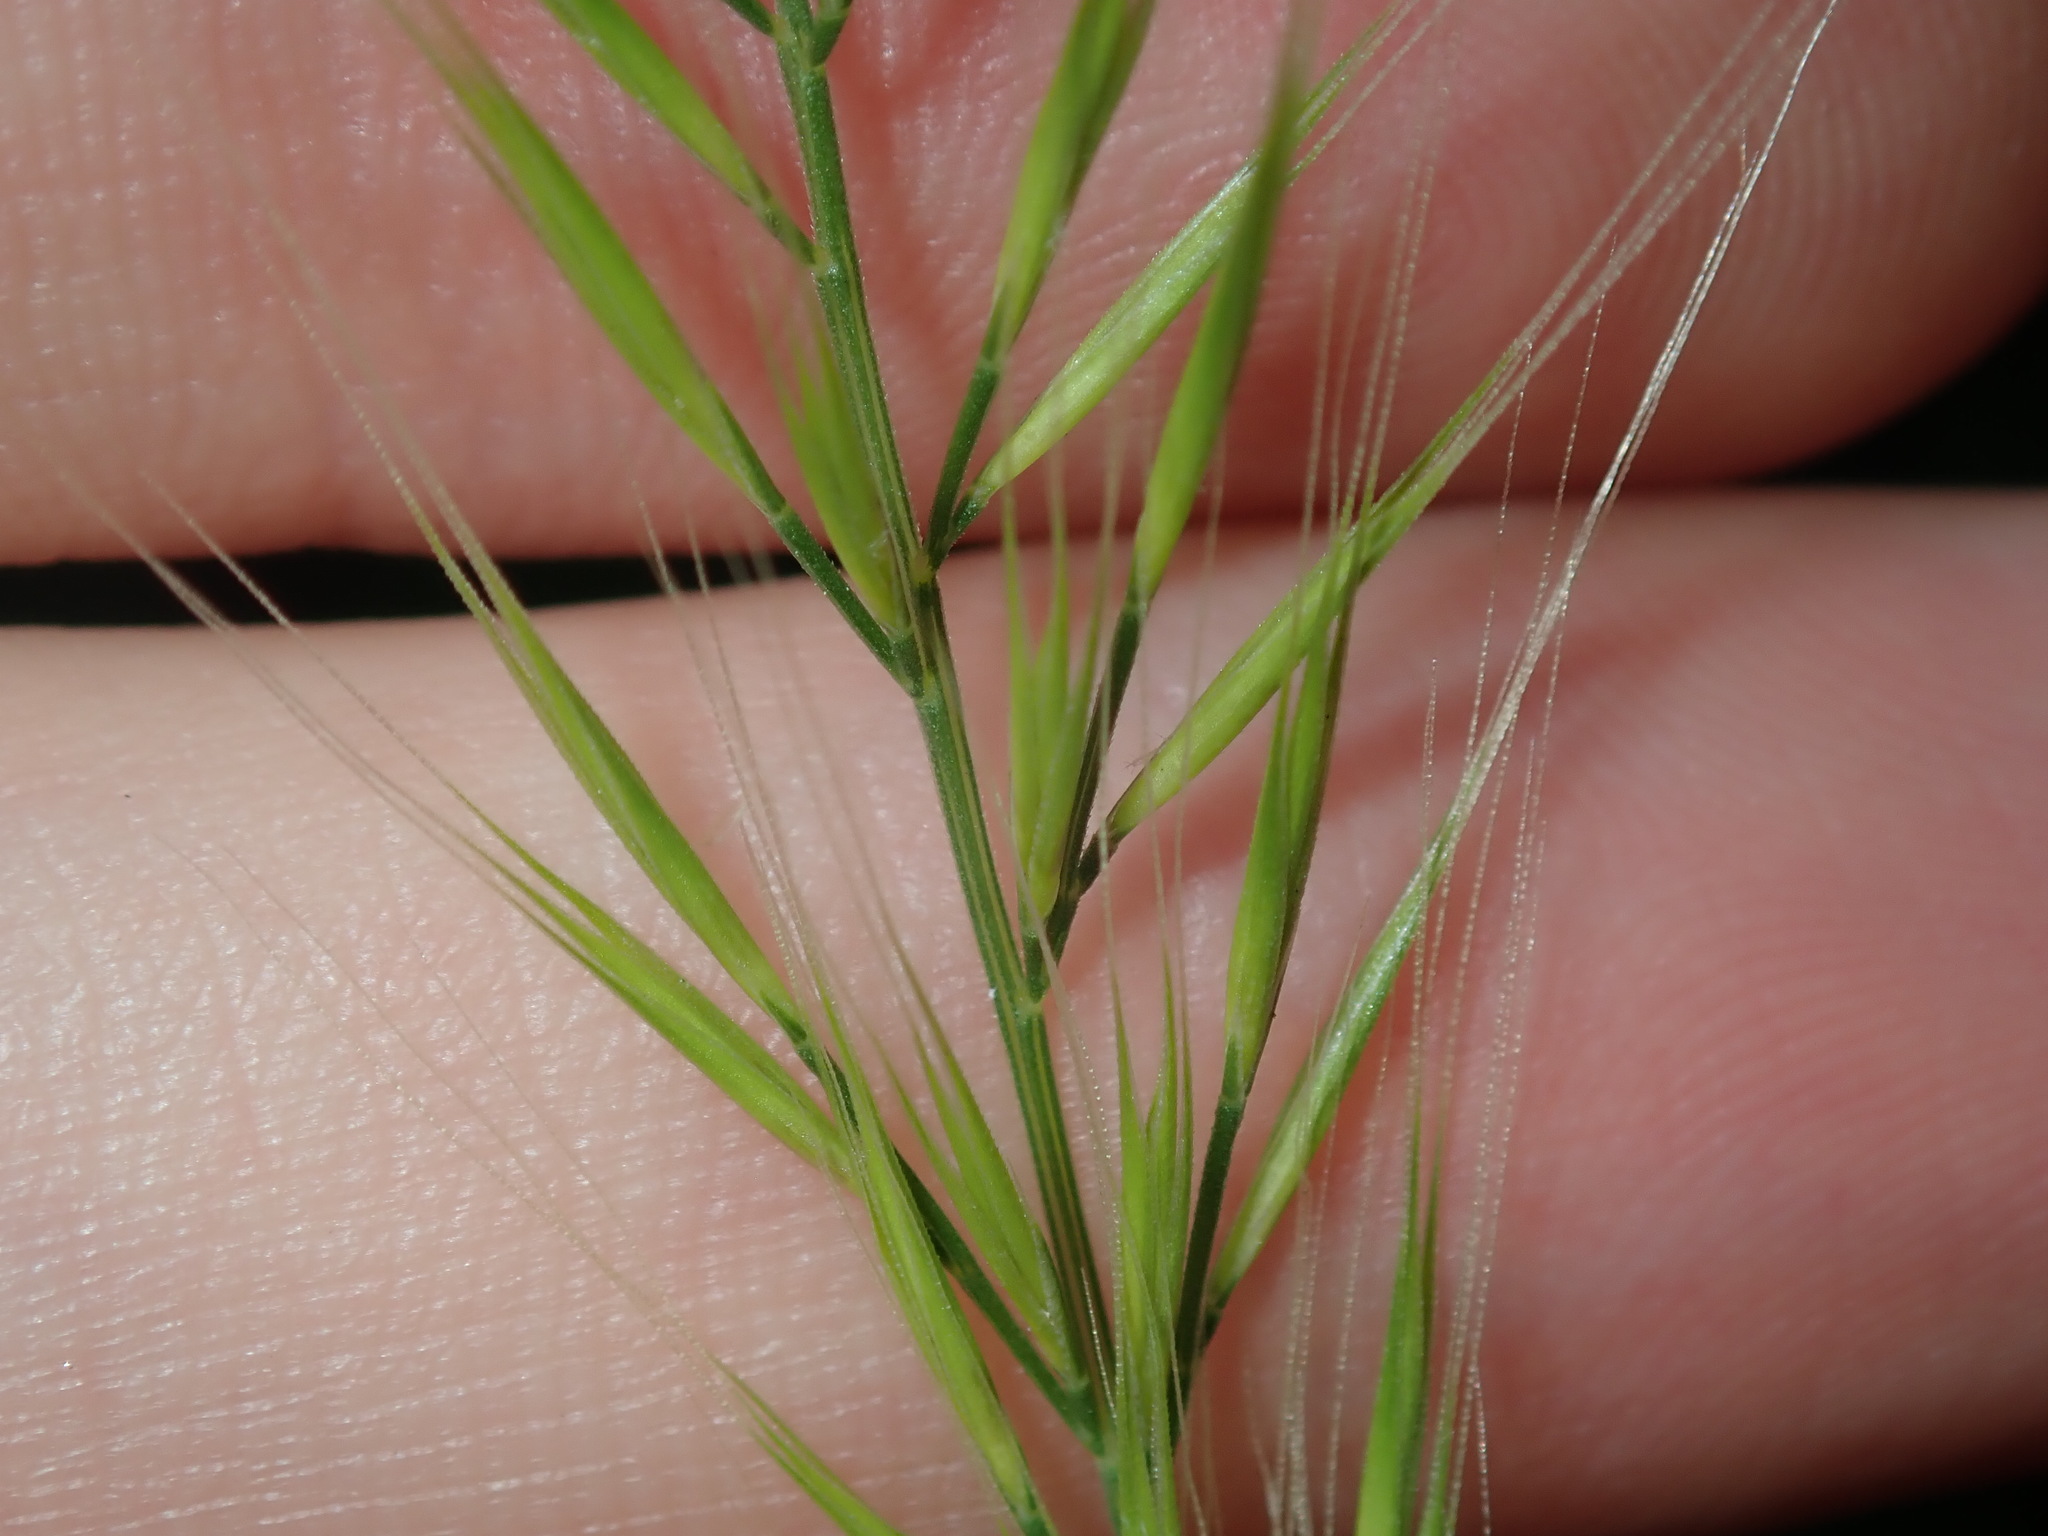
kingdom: Plantae
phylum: Tracheophyta
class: Liliopsida
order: Poales
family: Poaceae
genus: Festuca
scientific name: Festuca bromoides
